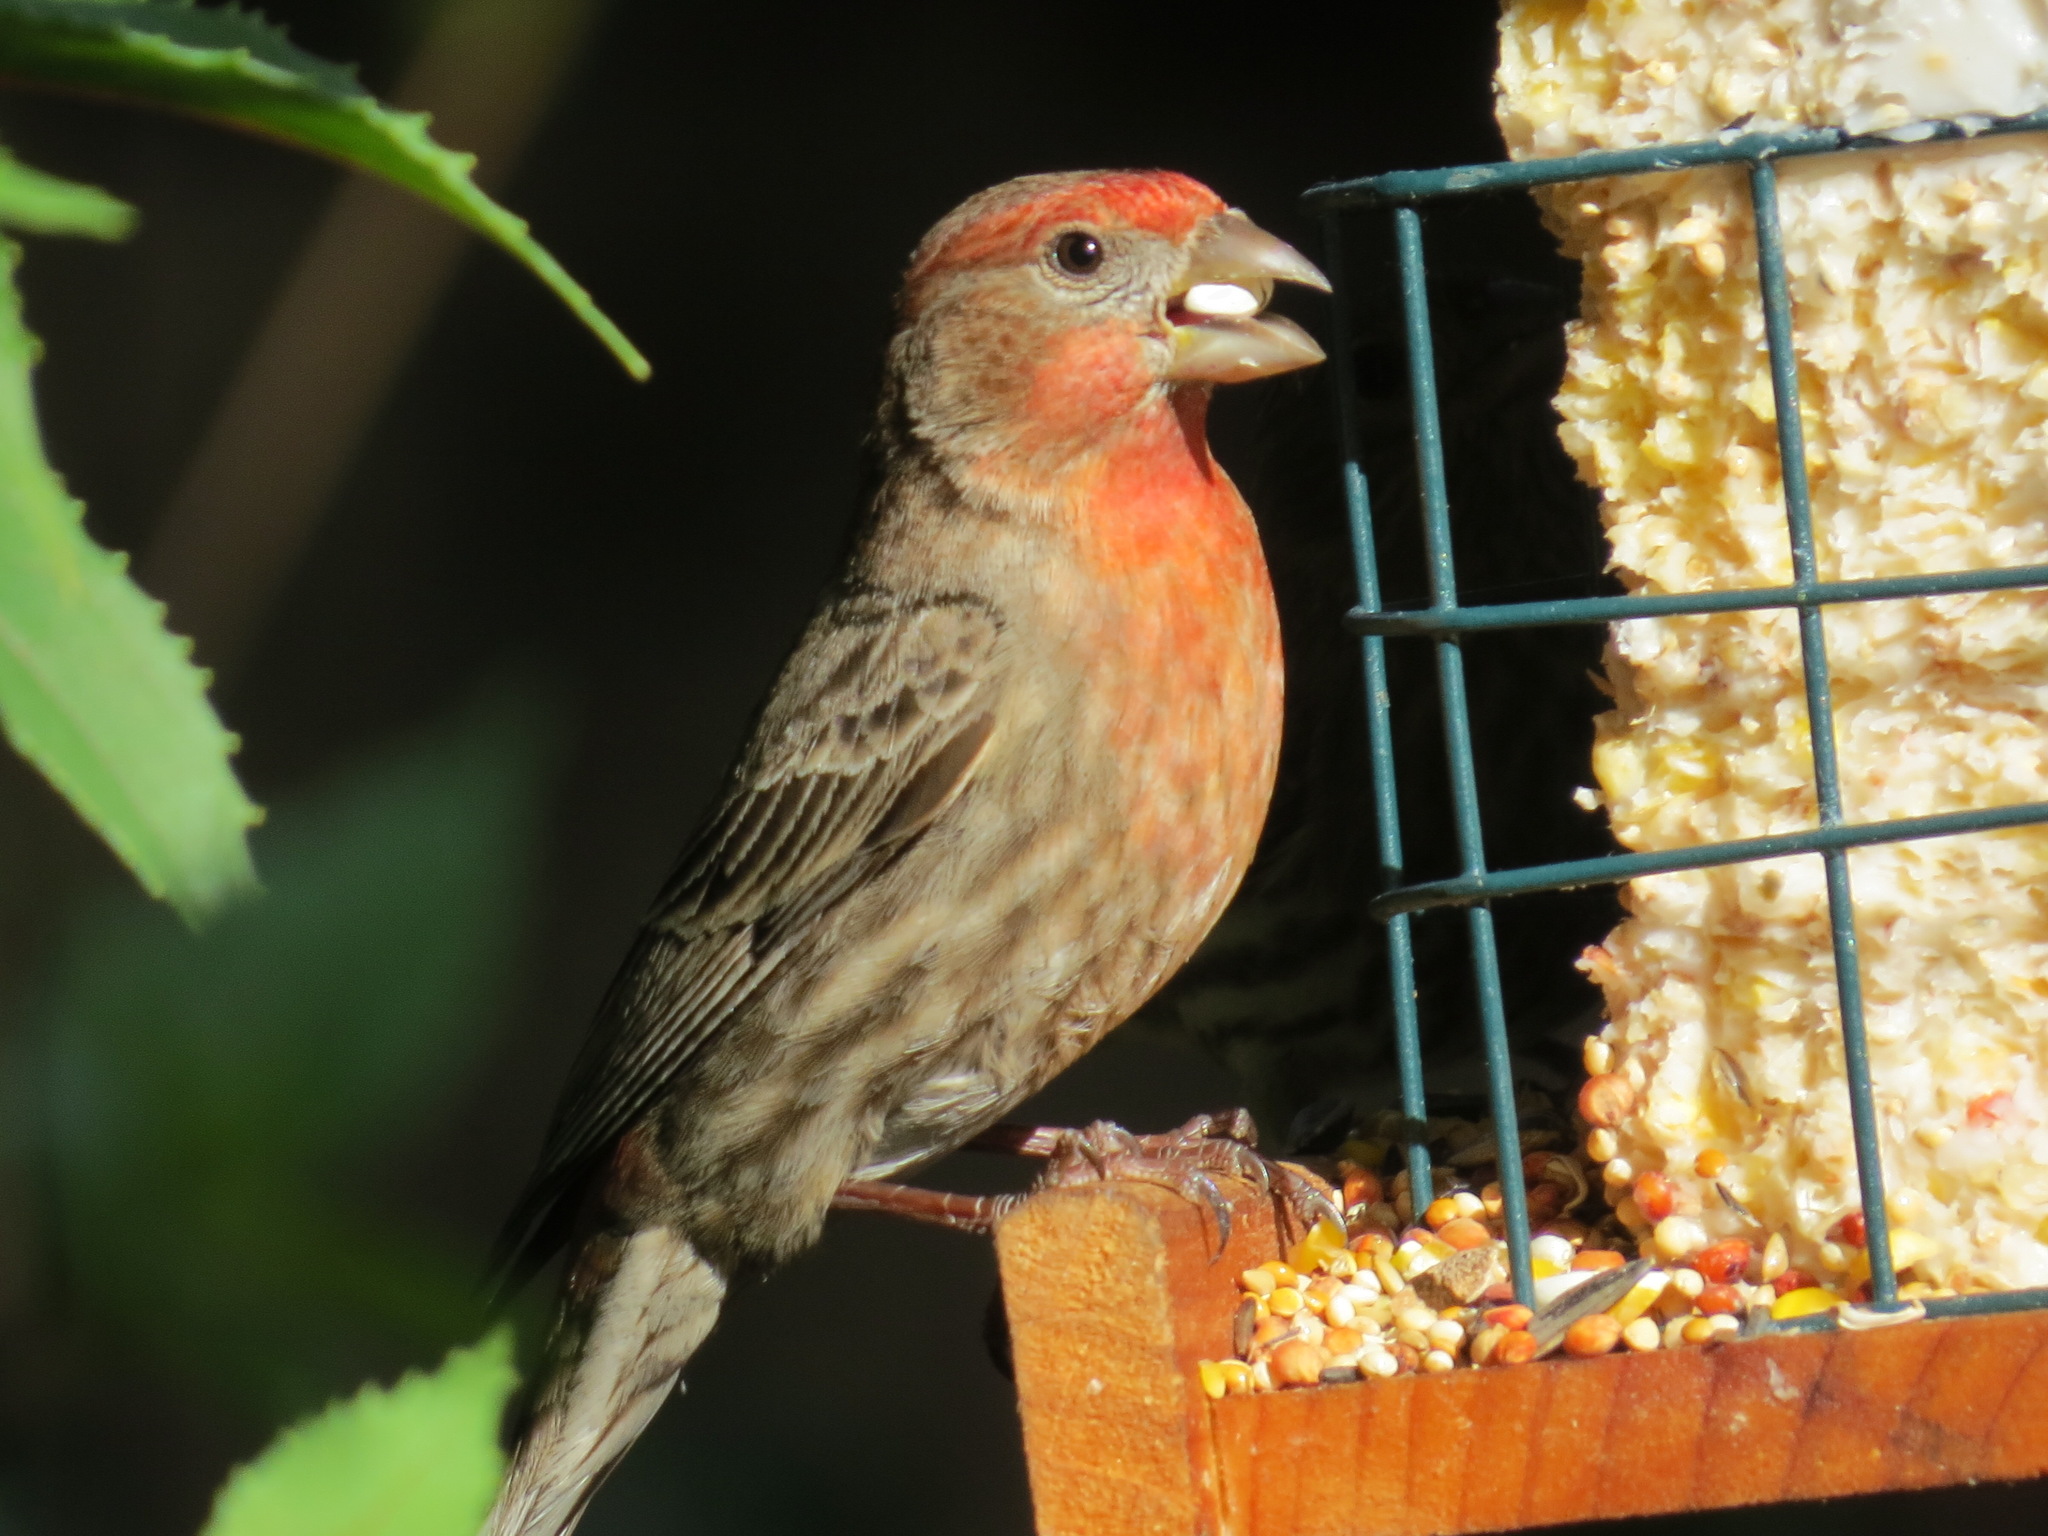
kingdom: Animalia
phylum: Chordata
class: Aves
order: Passeriformes
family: Fringillidae
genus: Haemorhous
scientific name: Haemorhous mexicanus
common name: House finch
